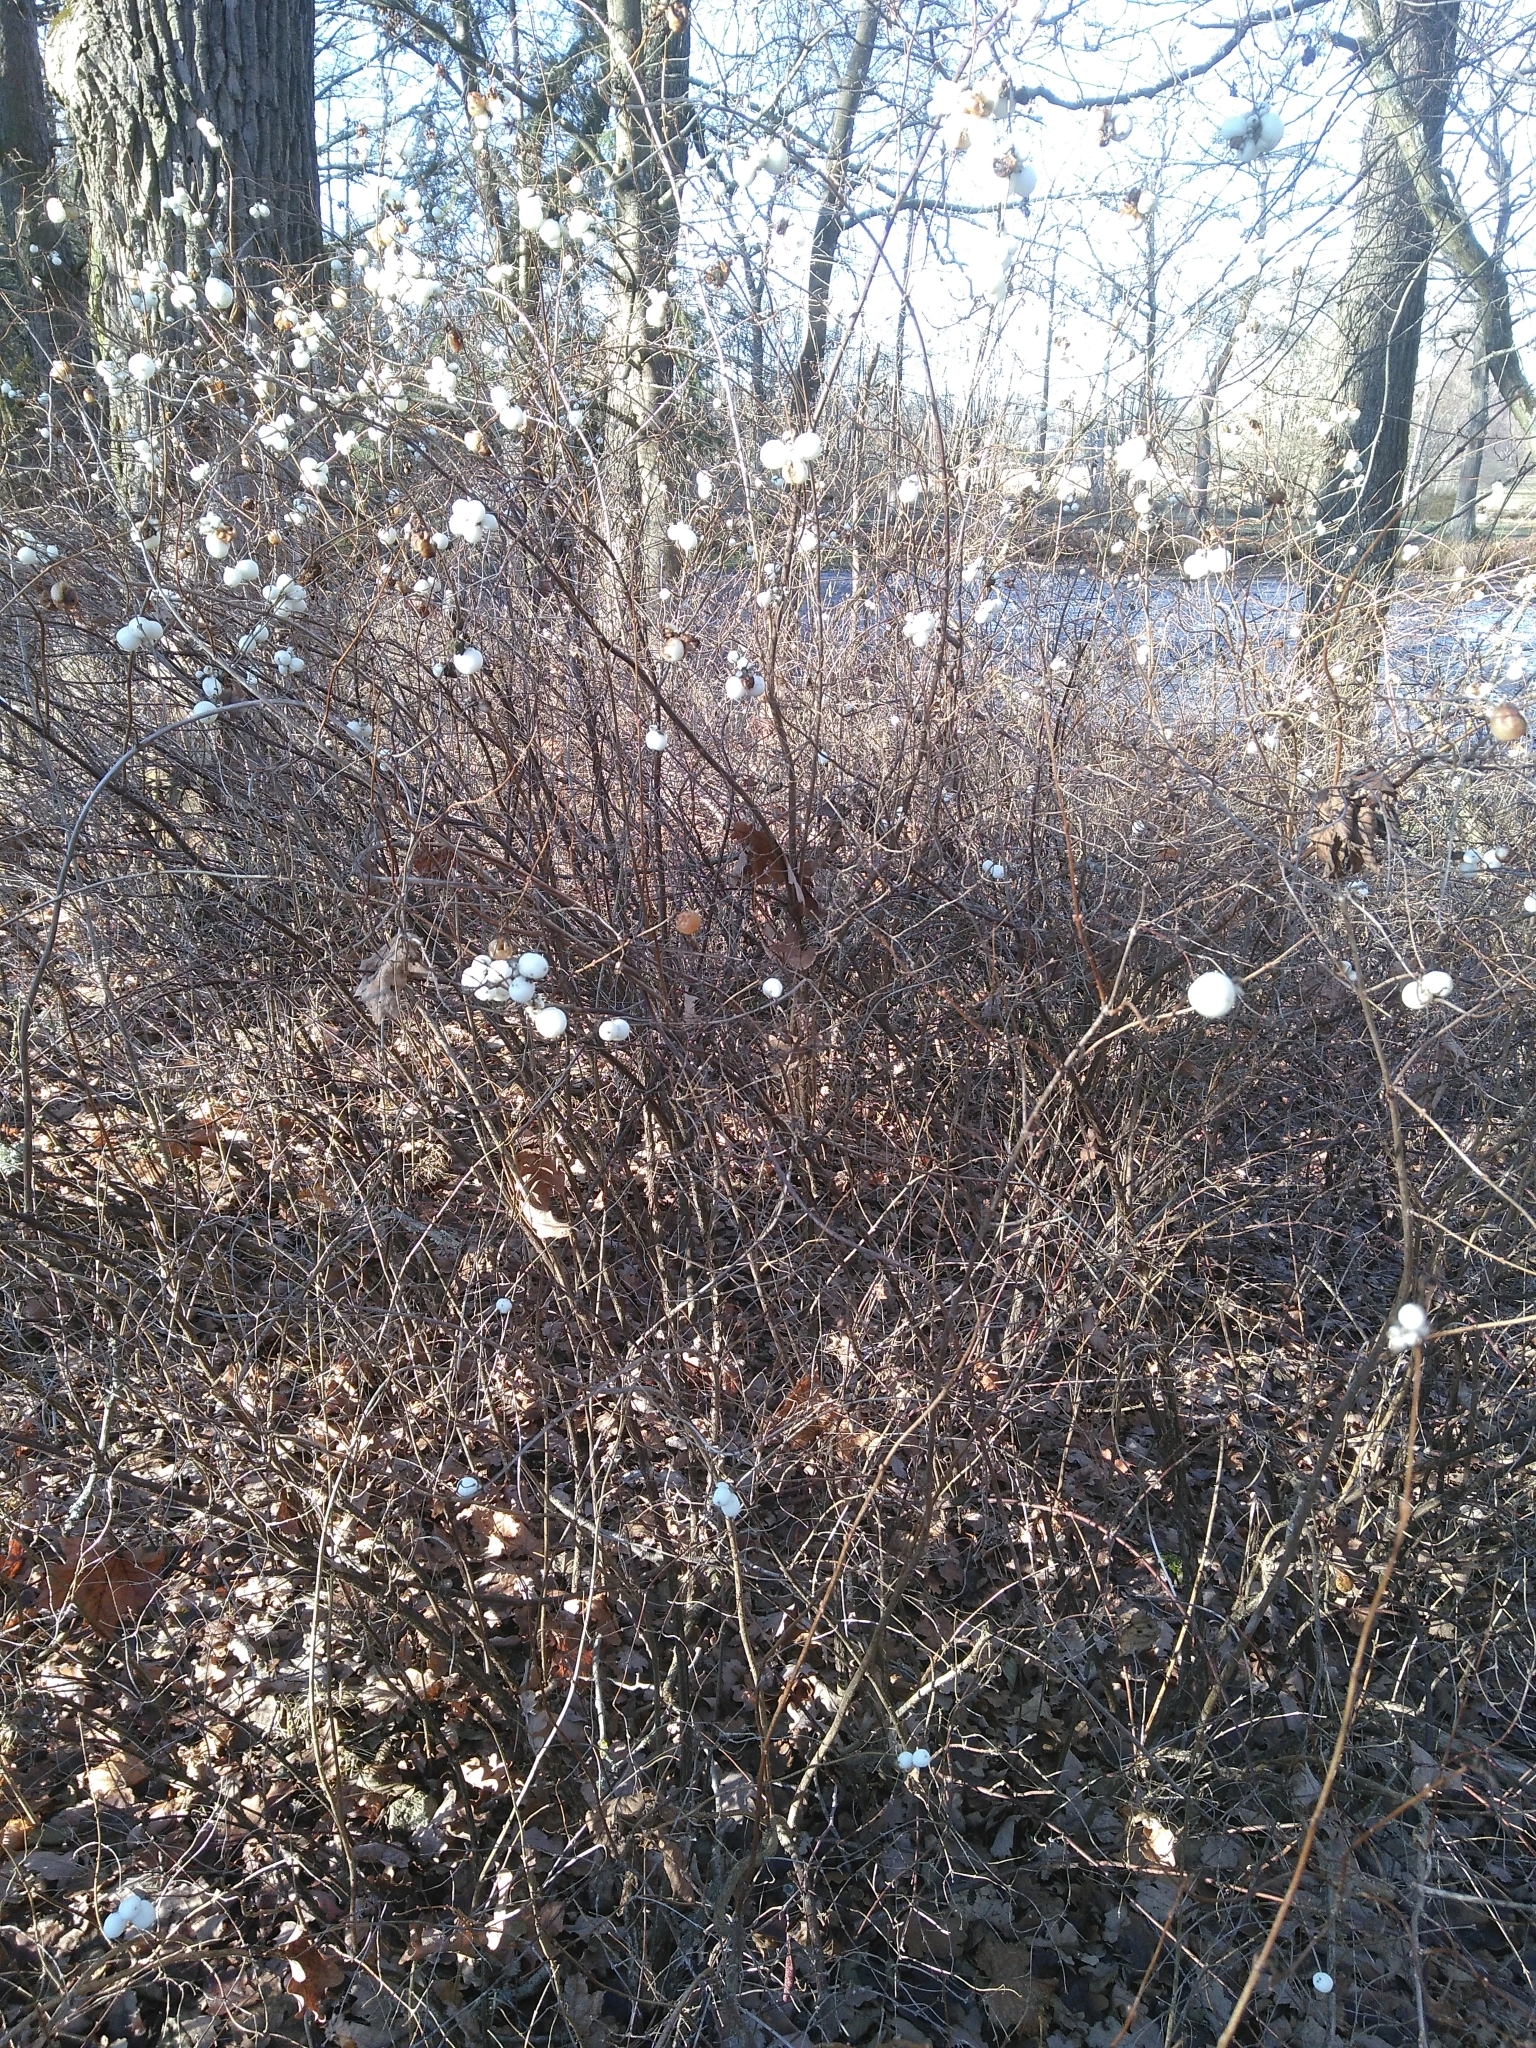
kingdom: Plantae
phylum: Tracheophyta
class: Magnoliopsida
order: Dipsacales
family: Caprifoliaceae
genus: Symphoricarpos
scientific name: Symphoricarpos albus
